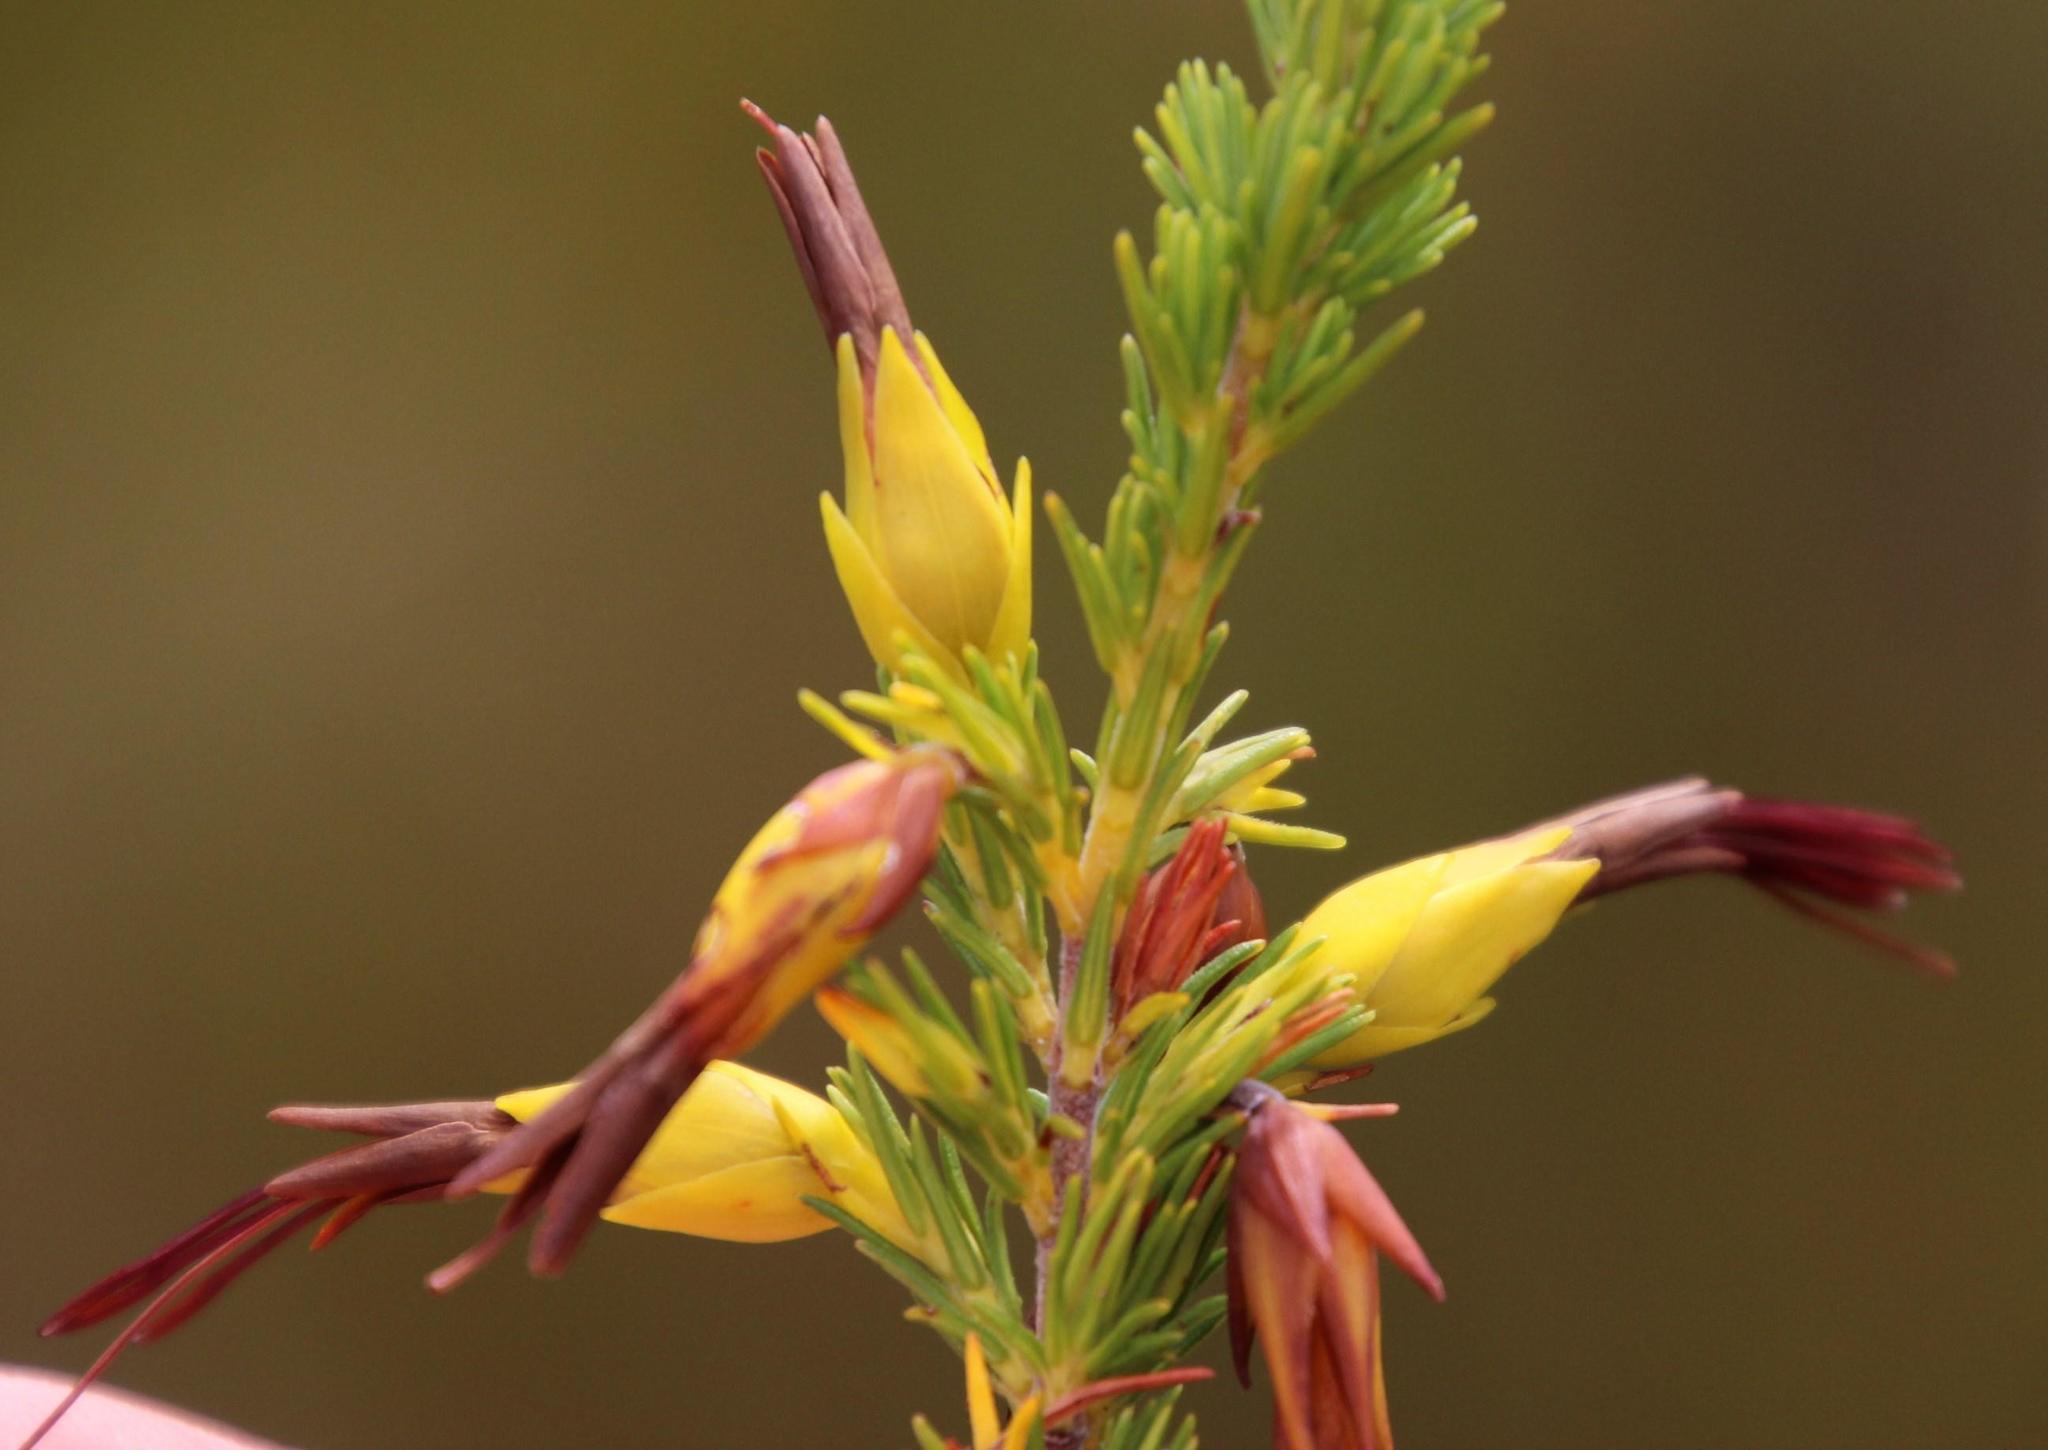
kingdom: Plantae
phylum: Tracheophyta
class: Magnoliopsida
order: Ericales
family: Ericaceae
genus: Erica
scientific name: Erica melastoma
